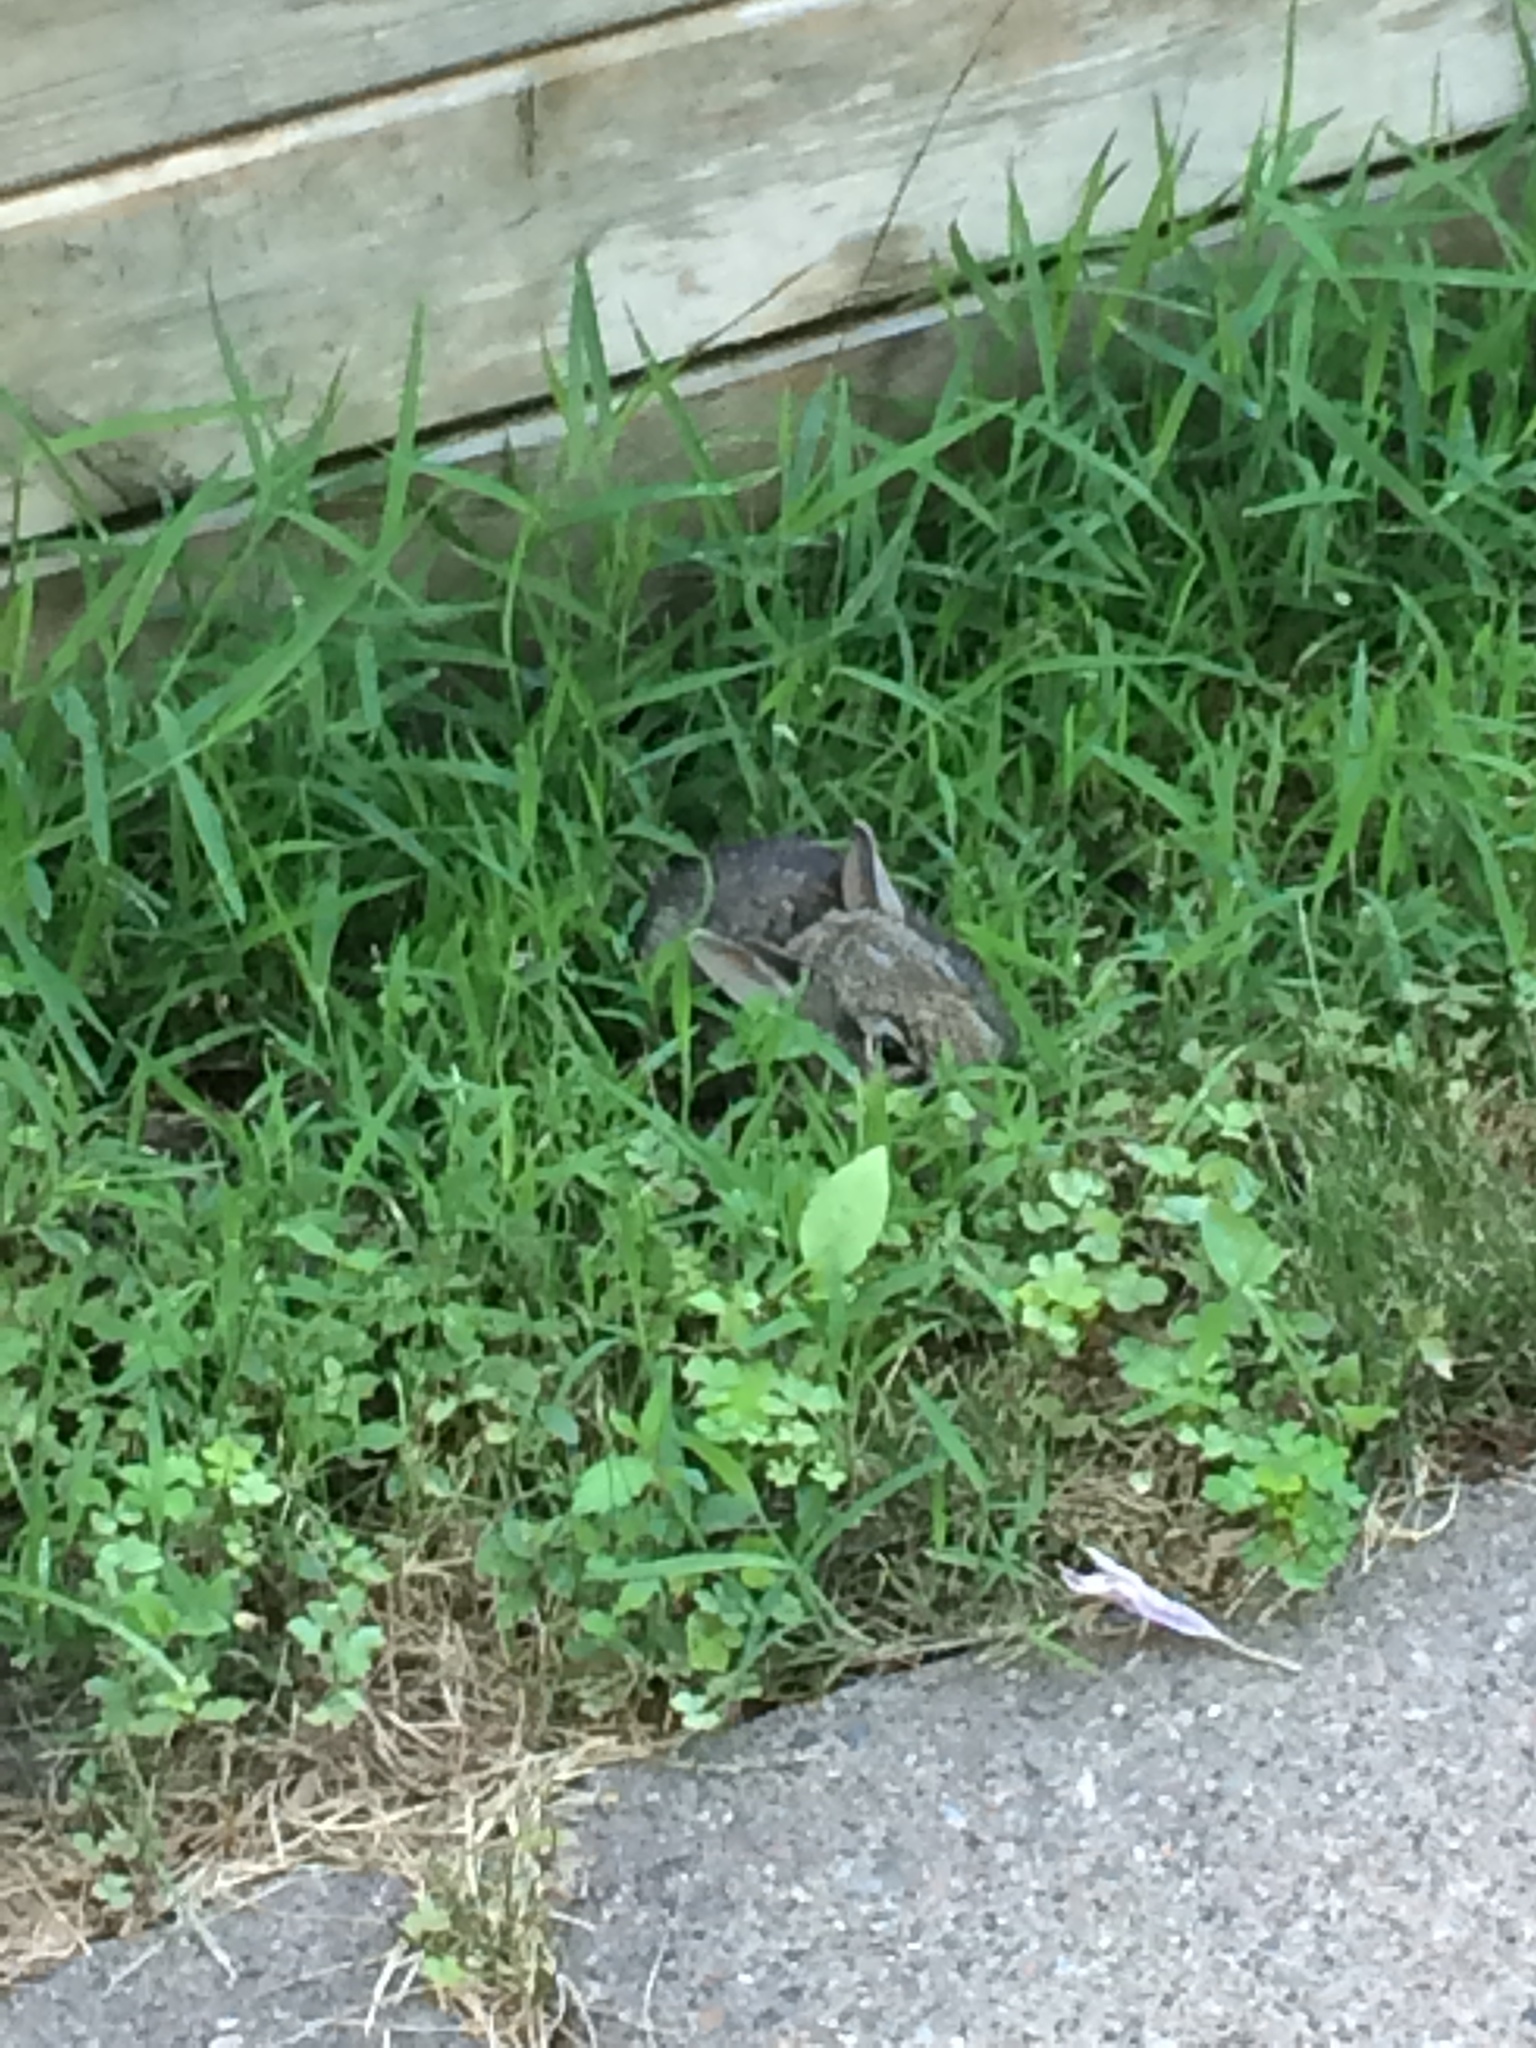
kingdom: Animalia
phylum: Chordata
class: Mammalia
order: Lagomorpha
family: Leporidae
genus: Sylvilagus
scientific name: Sylvilagus floridanus
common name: Eastern cottontail
